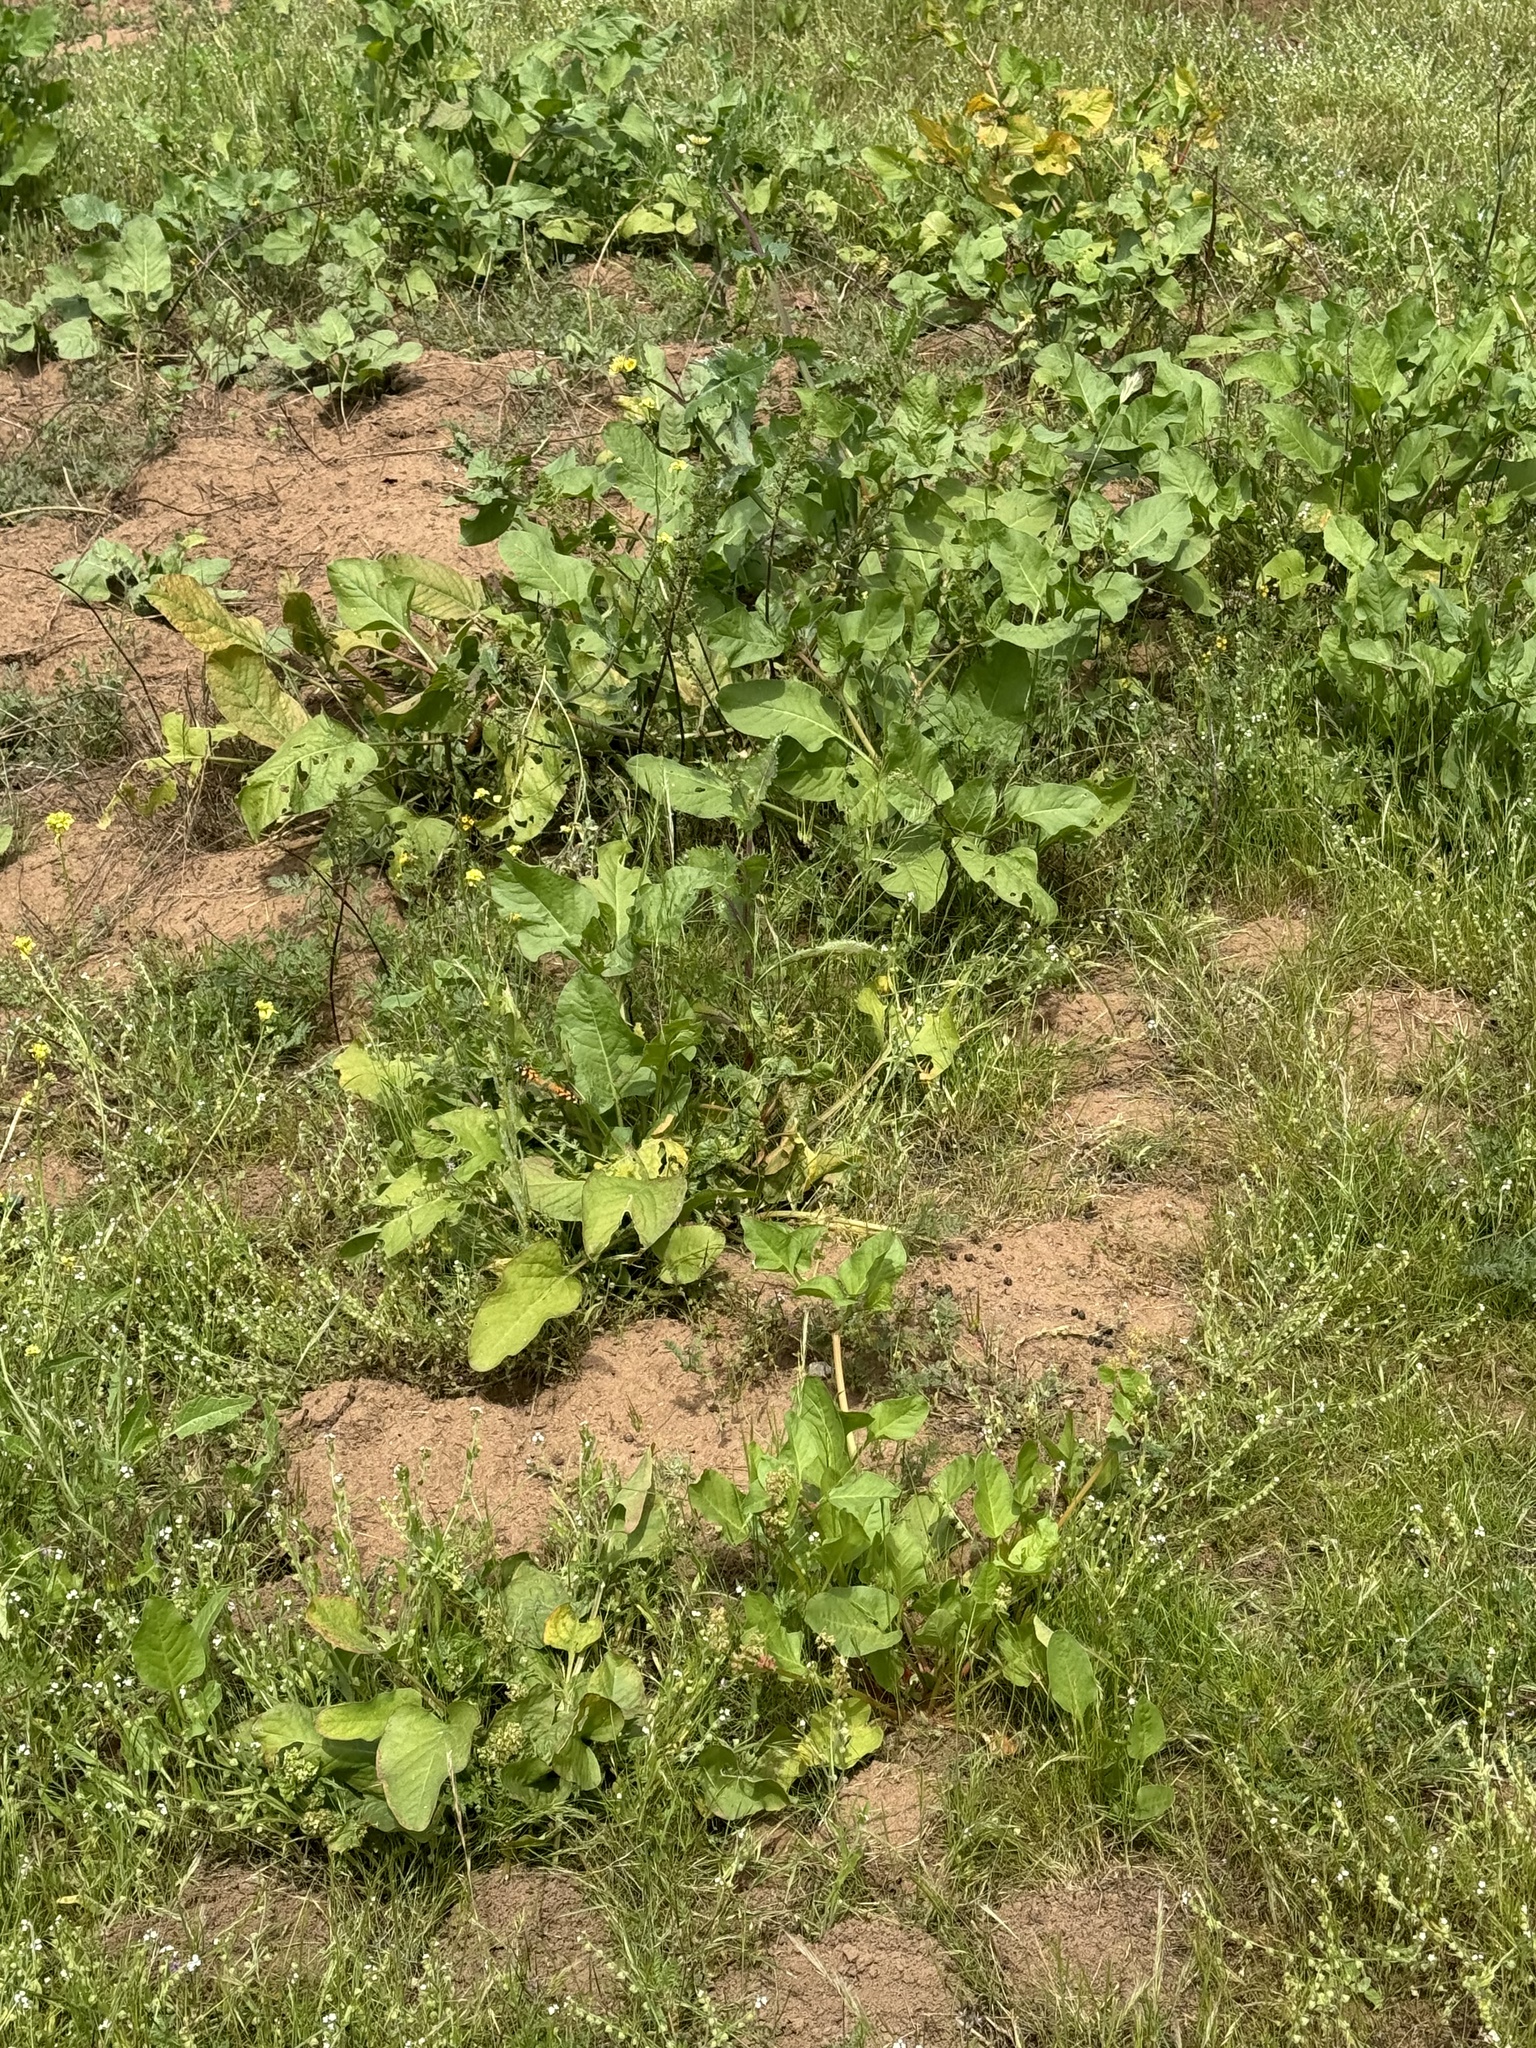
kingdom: Animalia
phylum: Arthropoda
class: Insecta
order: Lepidoptera
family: Nymphalidae
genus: Vanessa
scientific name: Vanessa annabella
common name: West coast lady
